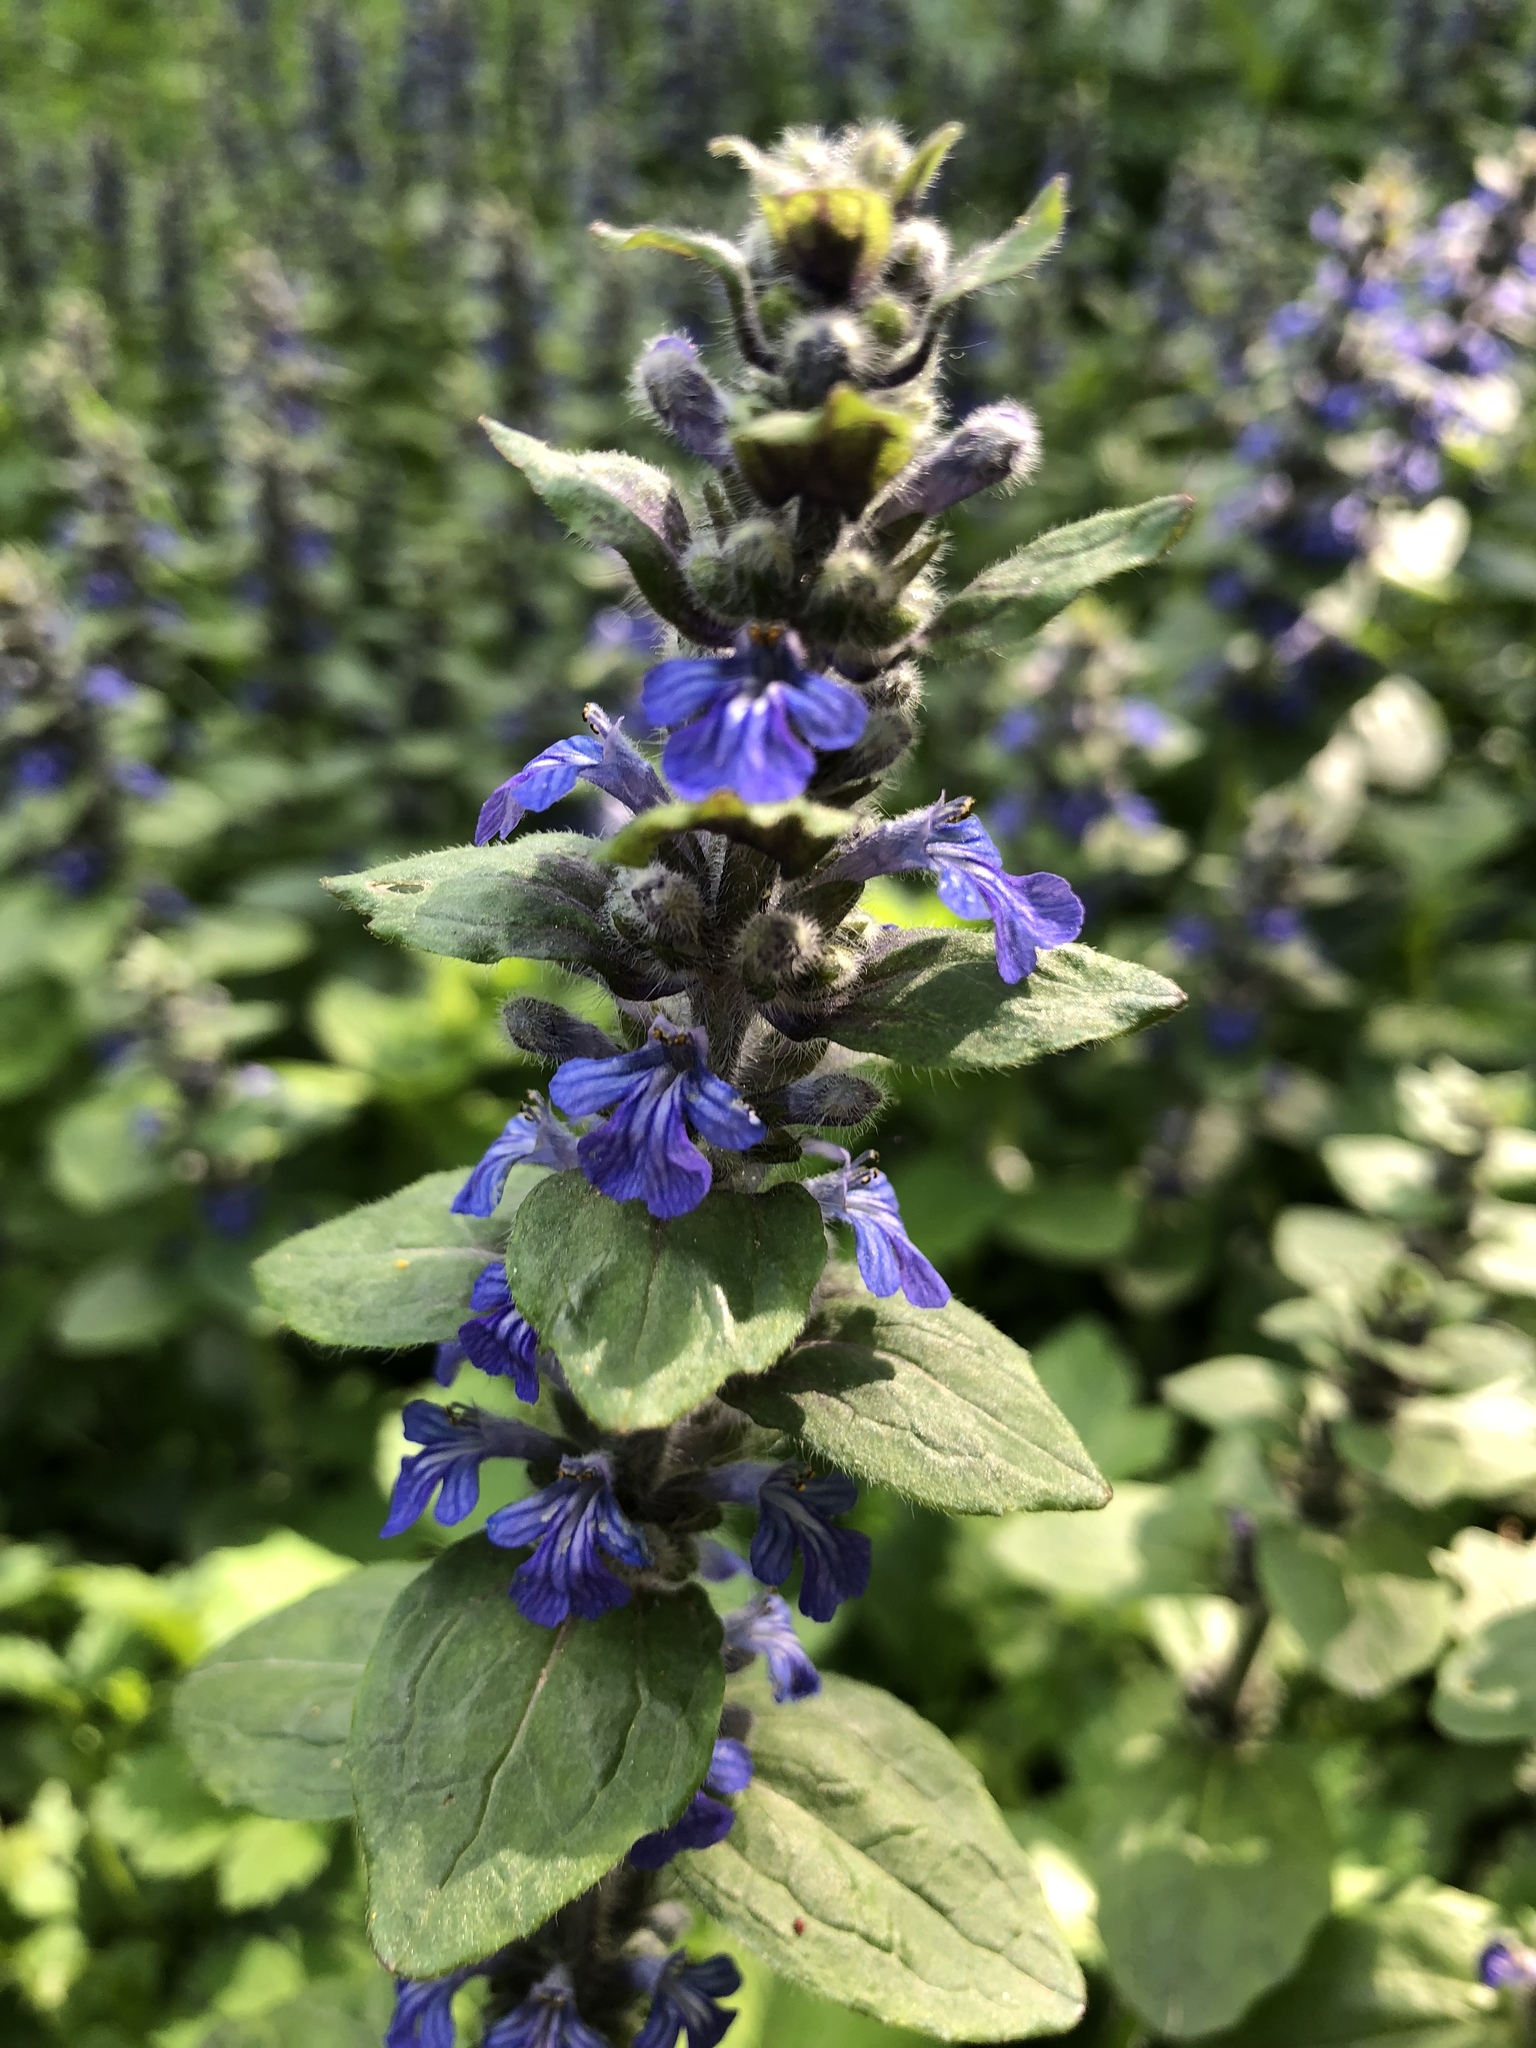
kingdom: Plantae
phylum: Tracheophyta
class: Magnoliopsida
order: Lamiales
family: Lamiaceae
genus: Ajuga
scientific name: Ajuga reptans
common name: Bugle
